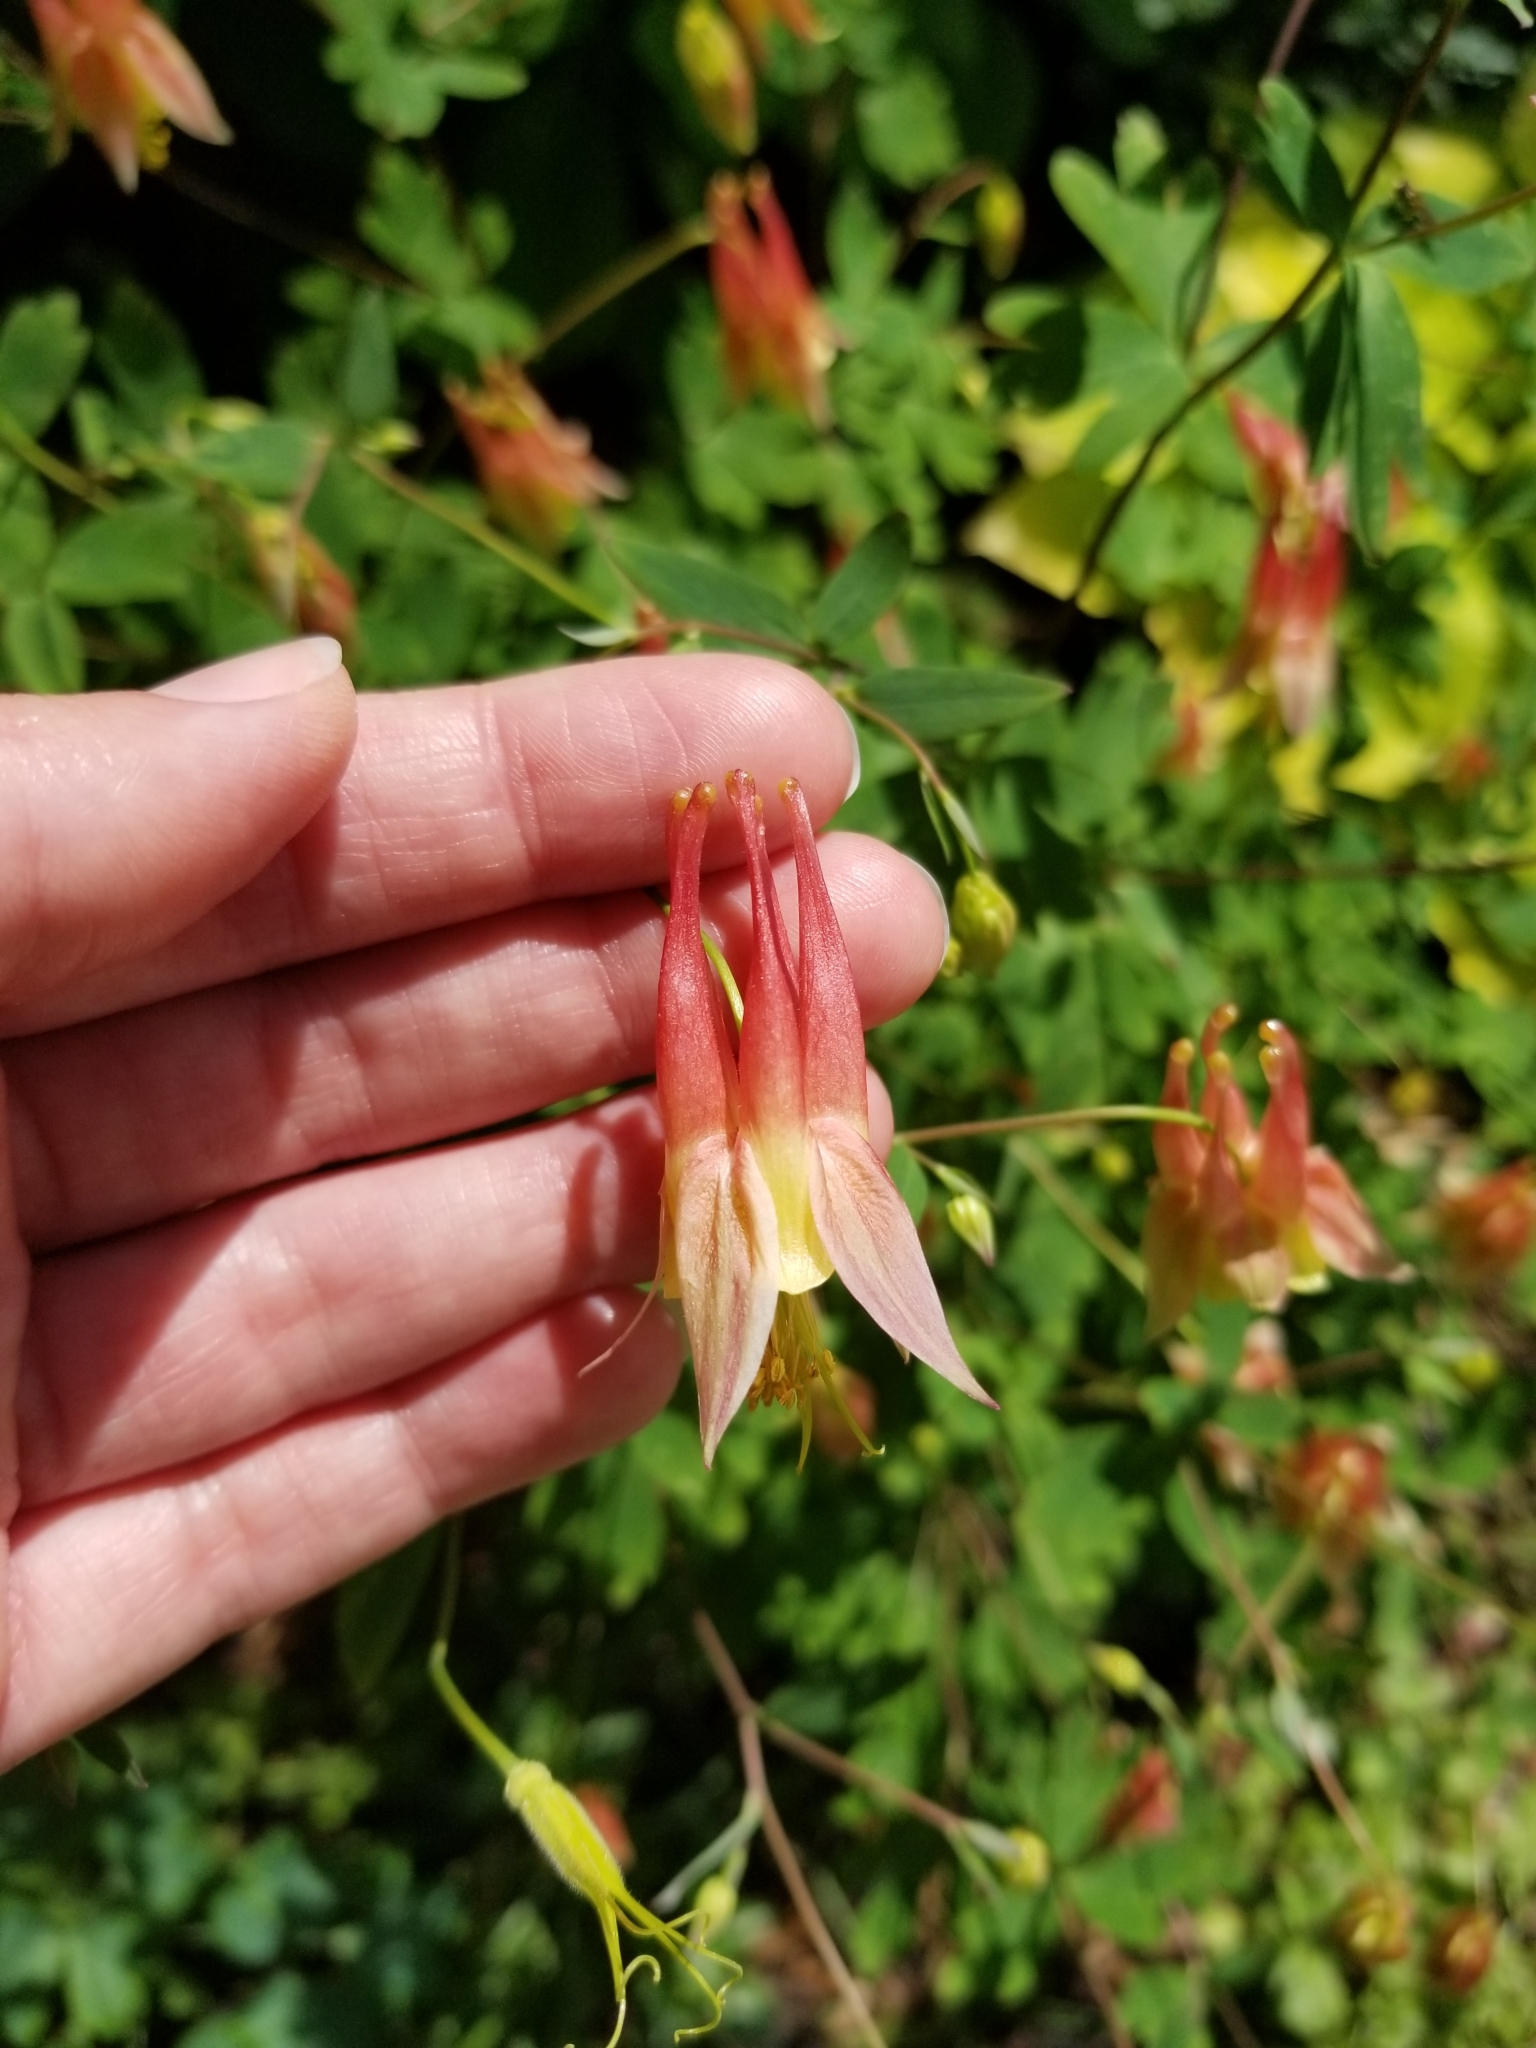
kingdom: Plantae
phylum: Tracheophyta
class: Magnoliopsida
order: Ranunculales
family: Ranunculaceae
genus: Aquilegia
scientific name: Aquilegia canadensis
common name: American columbine
